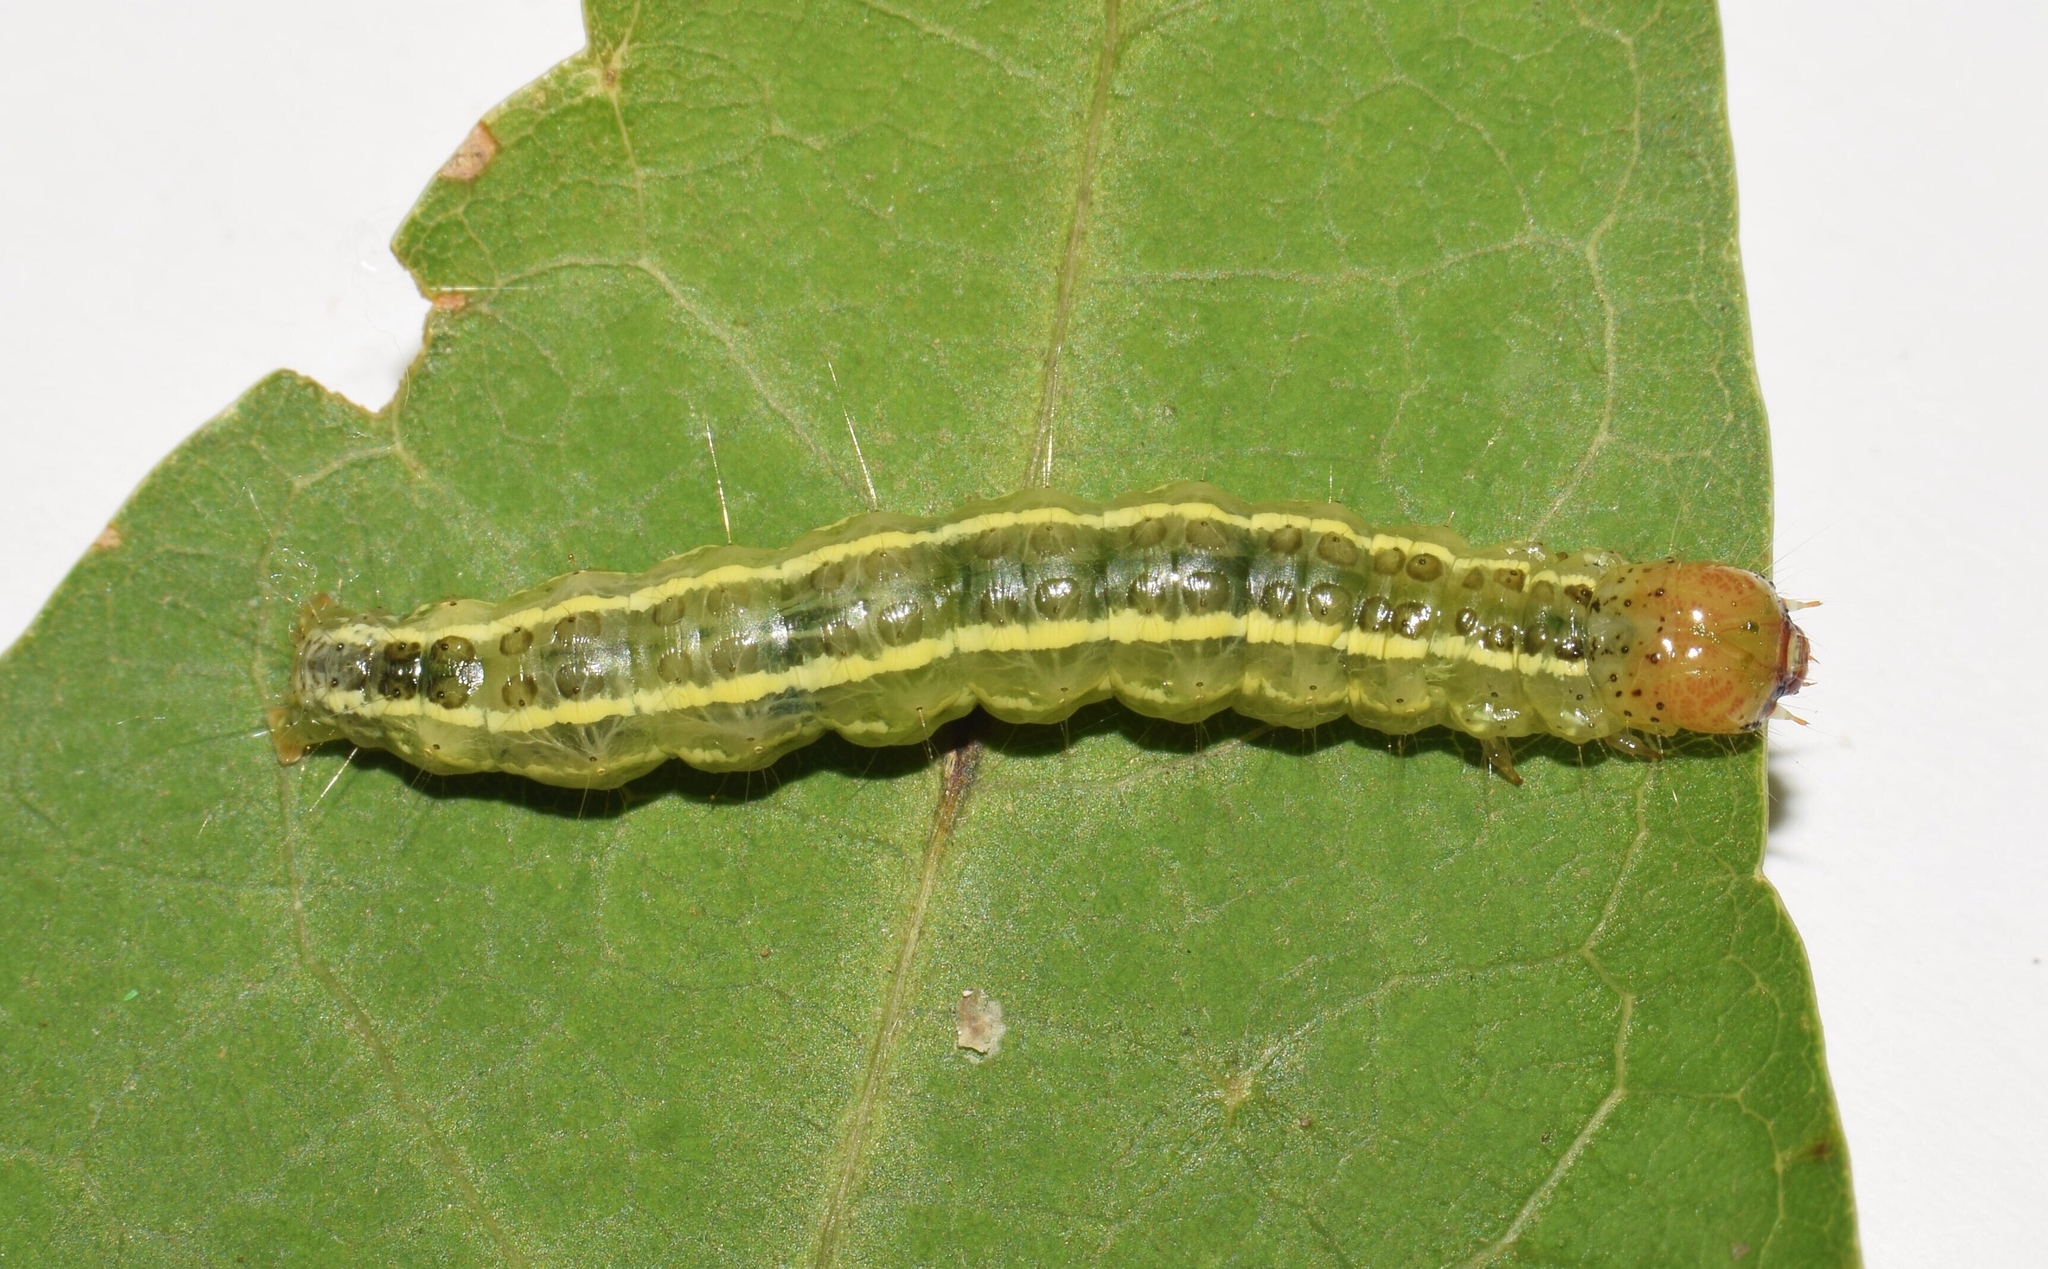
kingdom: Animalia
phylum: Arthropoda
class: Insecta
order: Lepidoptera
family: Crambidae
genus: Agathodes
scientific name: Agathodes musivalis
